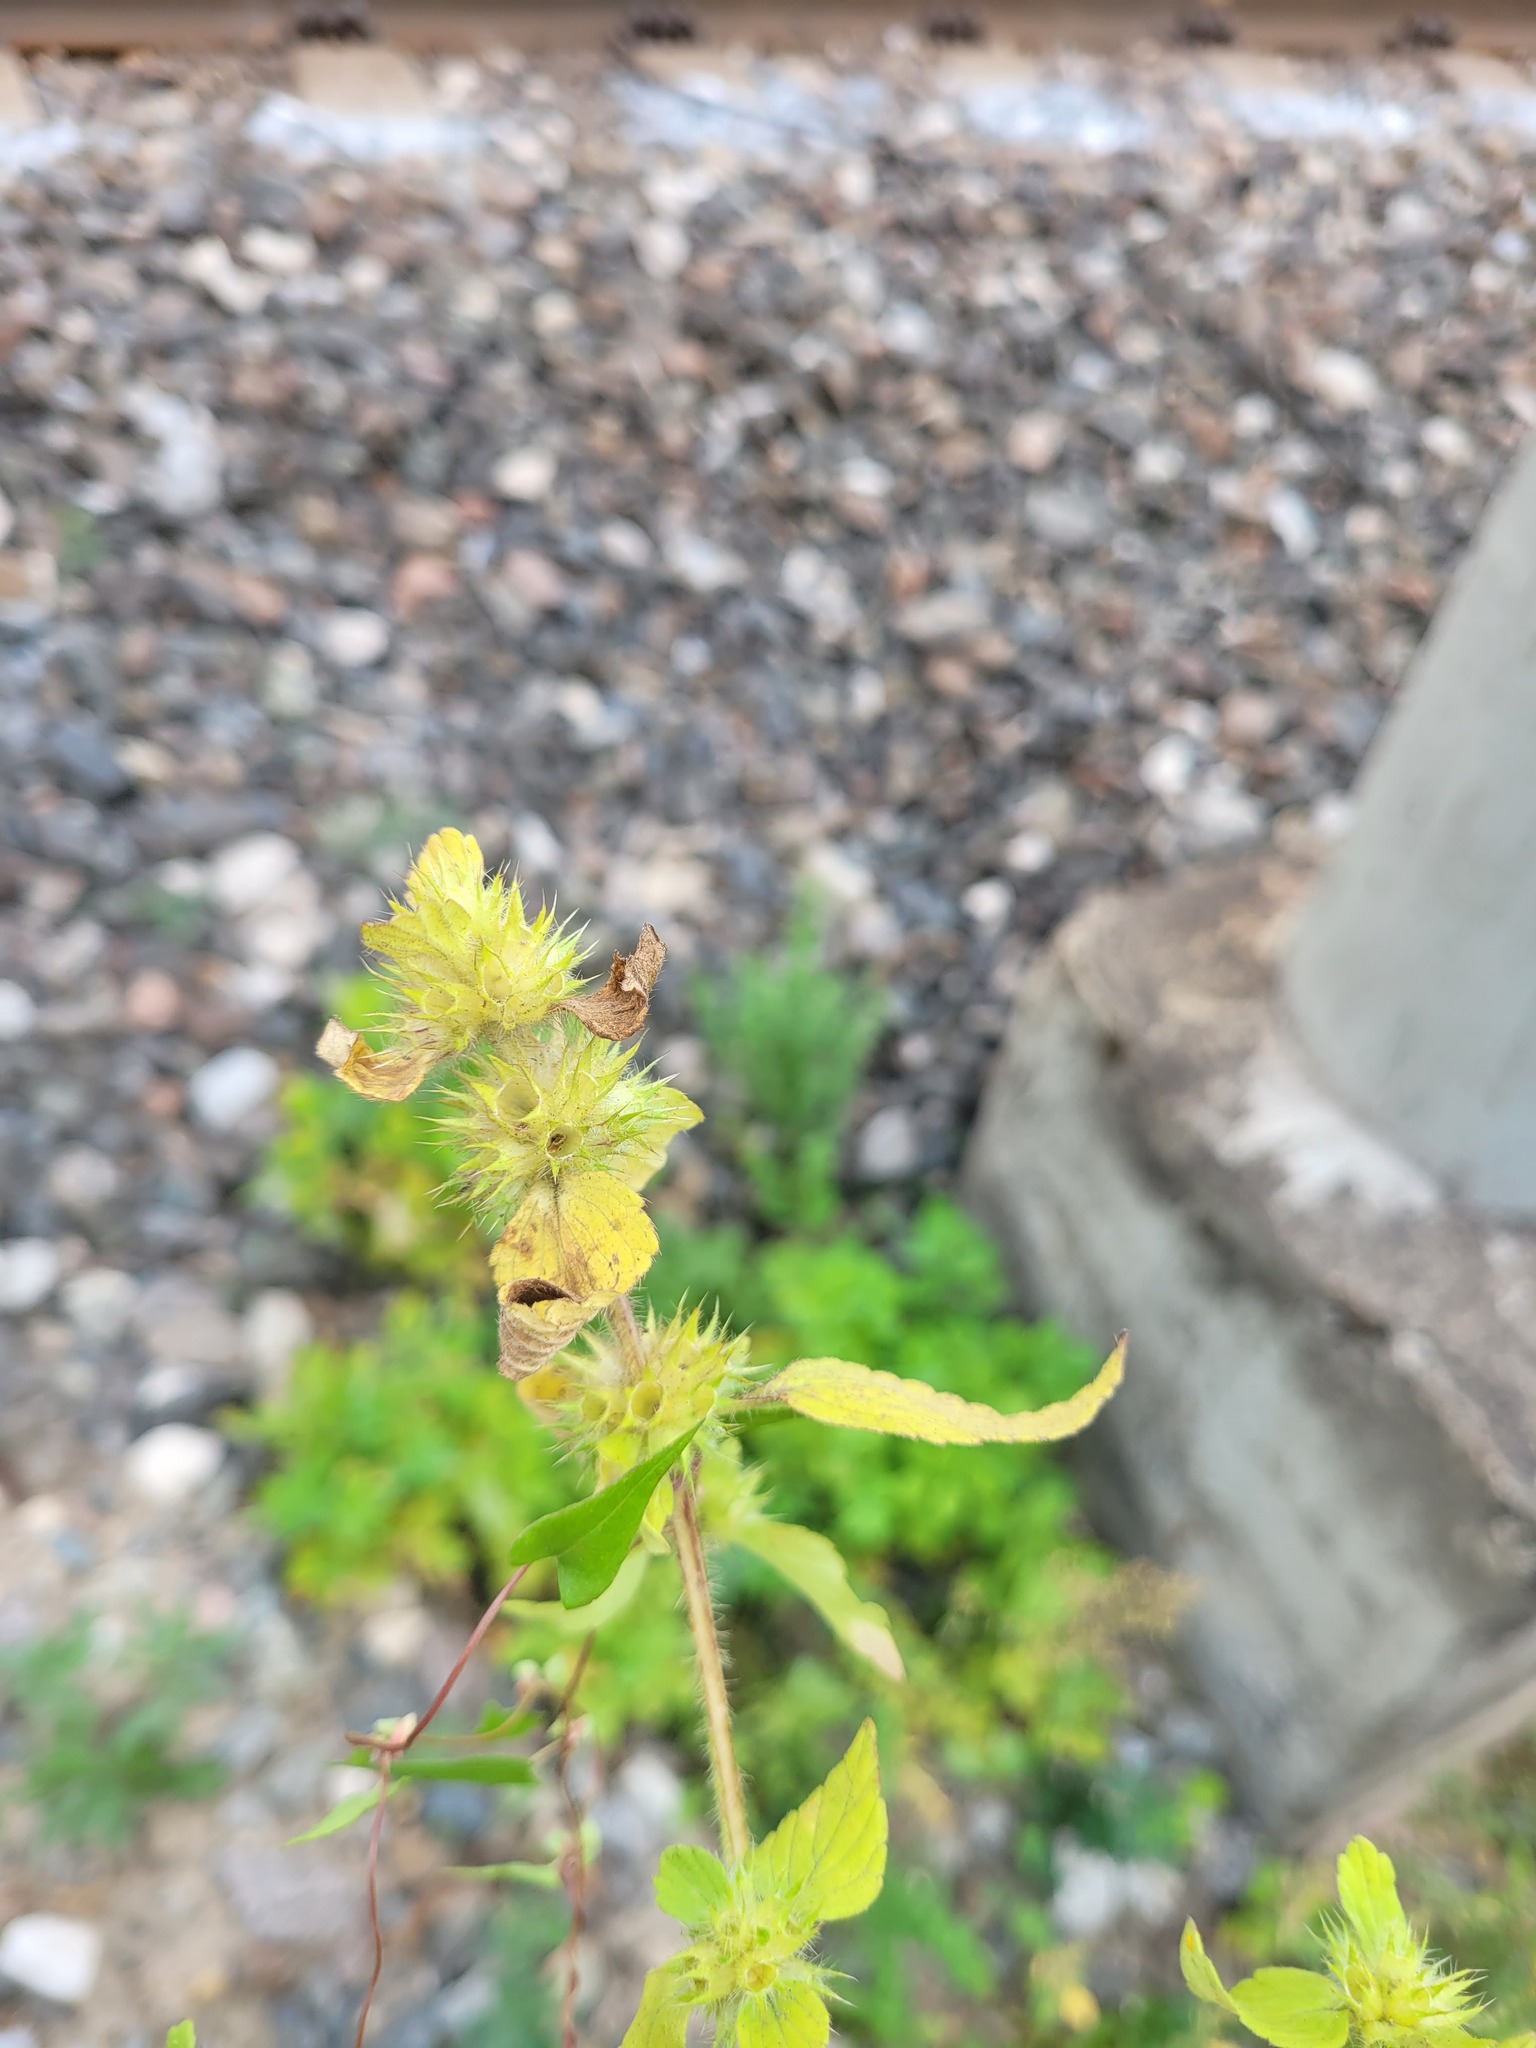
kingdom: Plantae
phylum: Tracheophyta
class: Magnoliopsida
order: Lamiales
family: Lamiaceae
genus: Galeopsis
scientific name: Galeopsis bifida
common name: Bifid hemp-nettle
